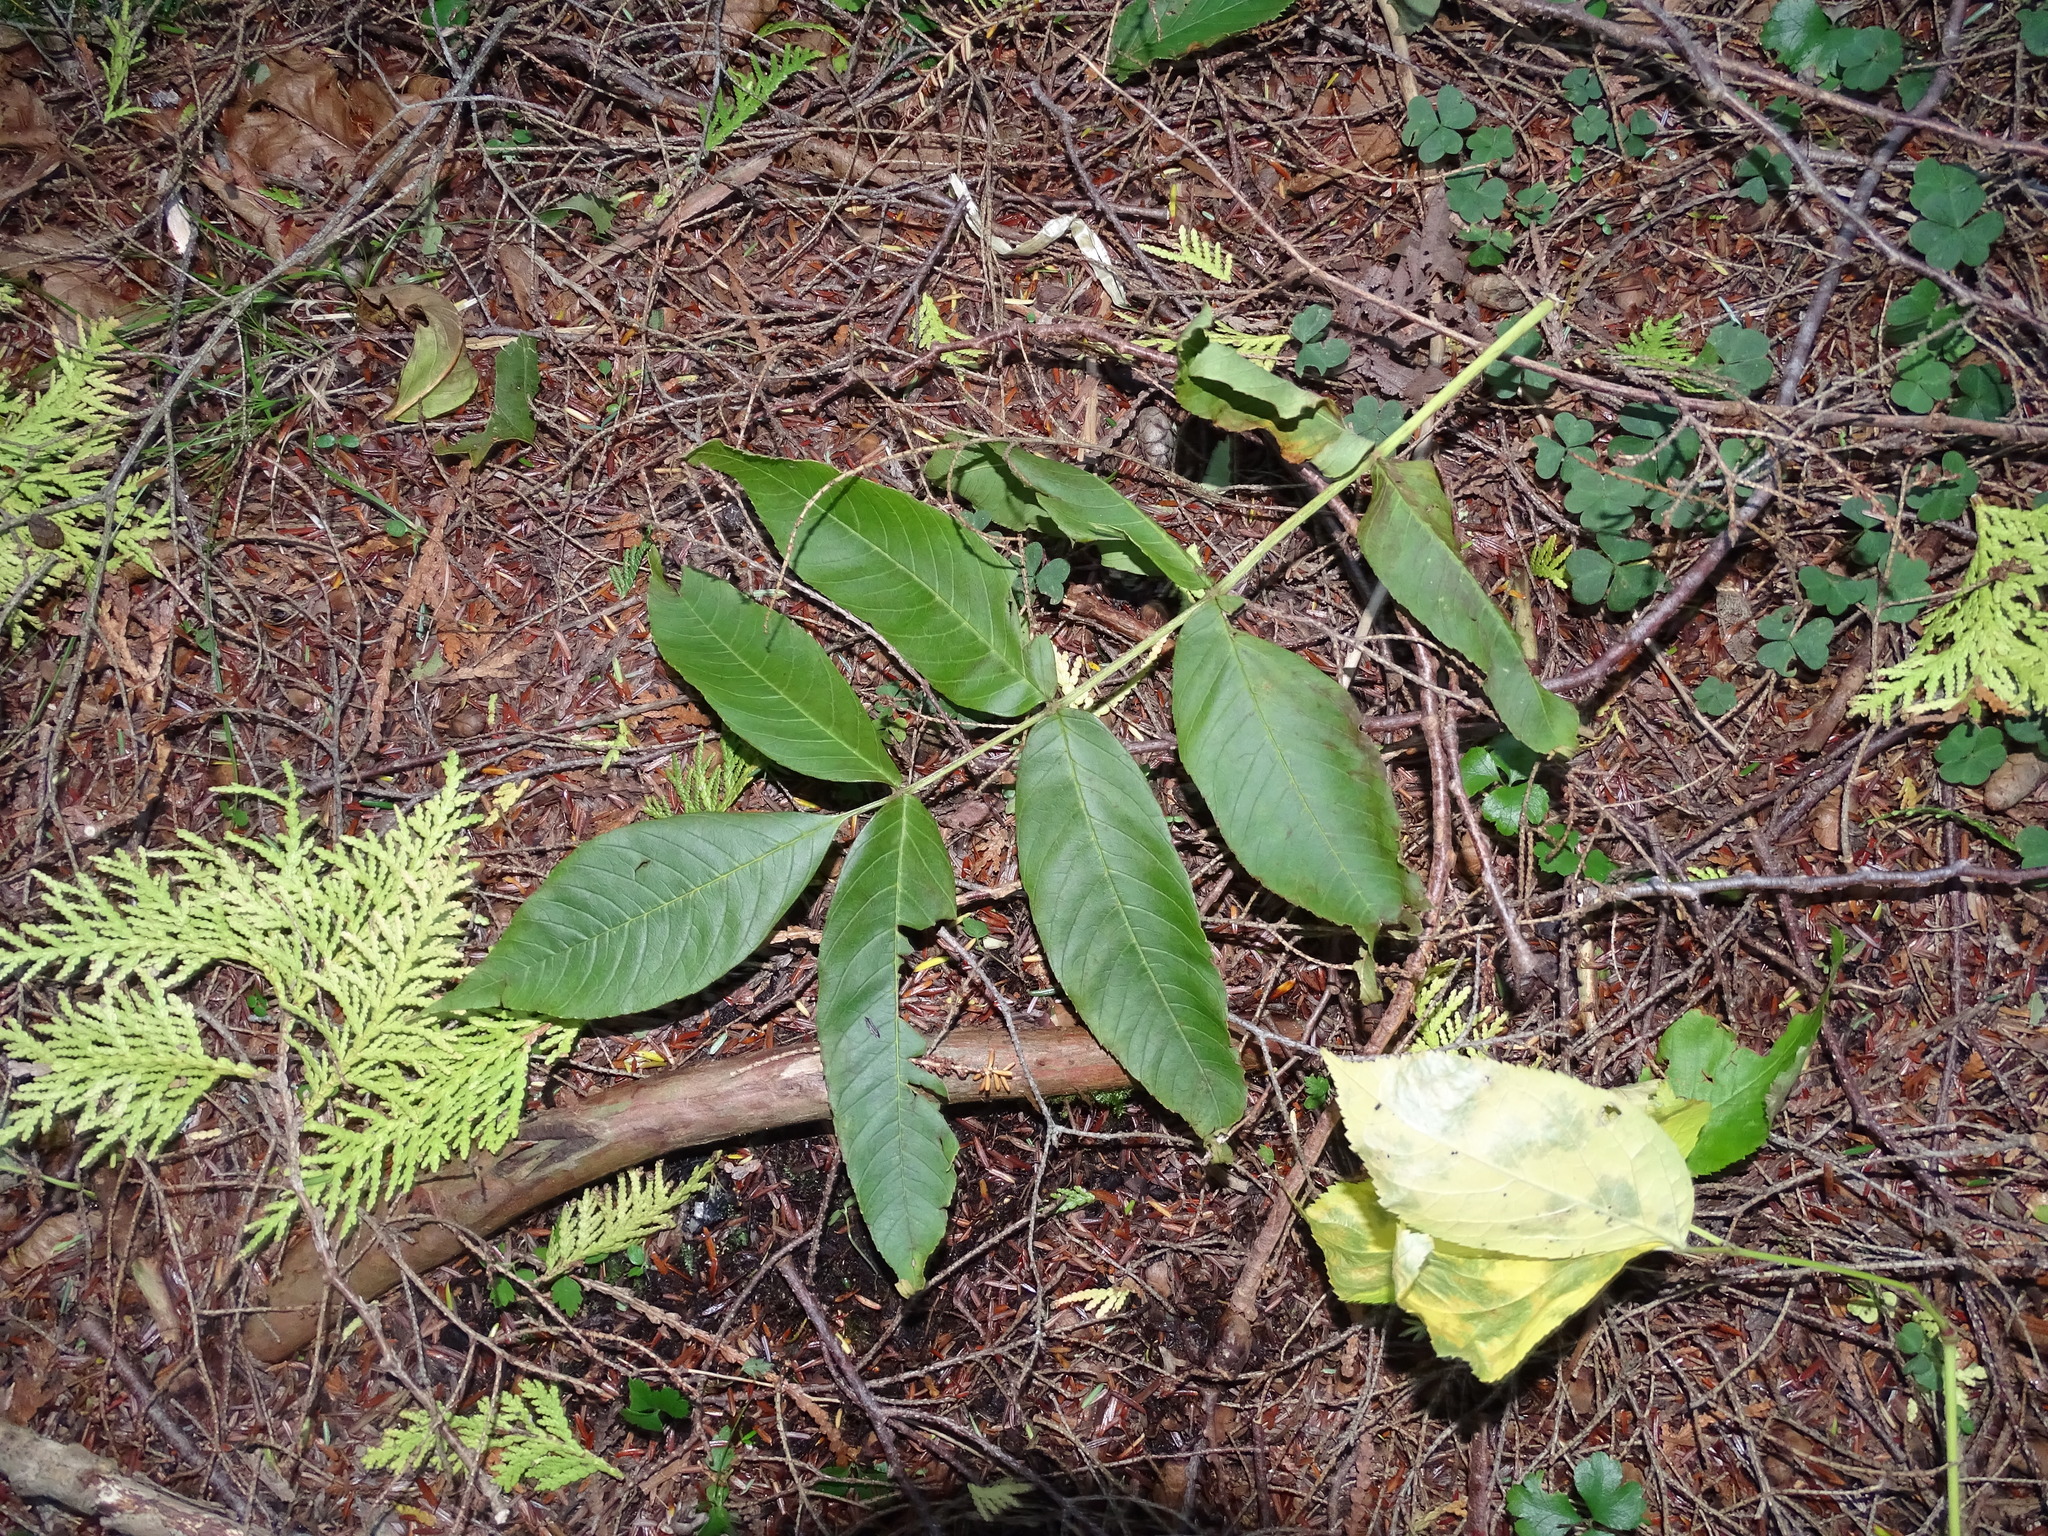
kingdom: Plantae
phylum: Tracheophyta
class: Magnoliopsida
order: Lamiales
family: Oleaceae
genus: Fraxinus
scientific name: Fraxinus nigra
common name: Black ash
